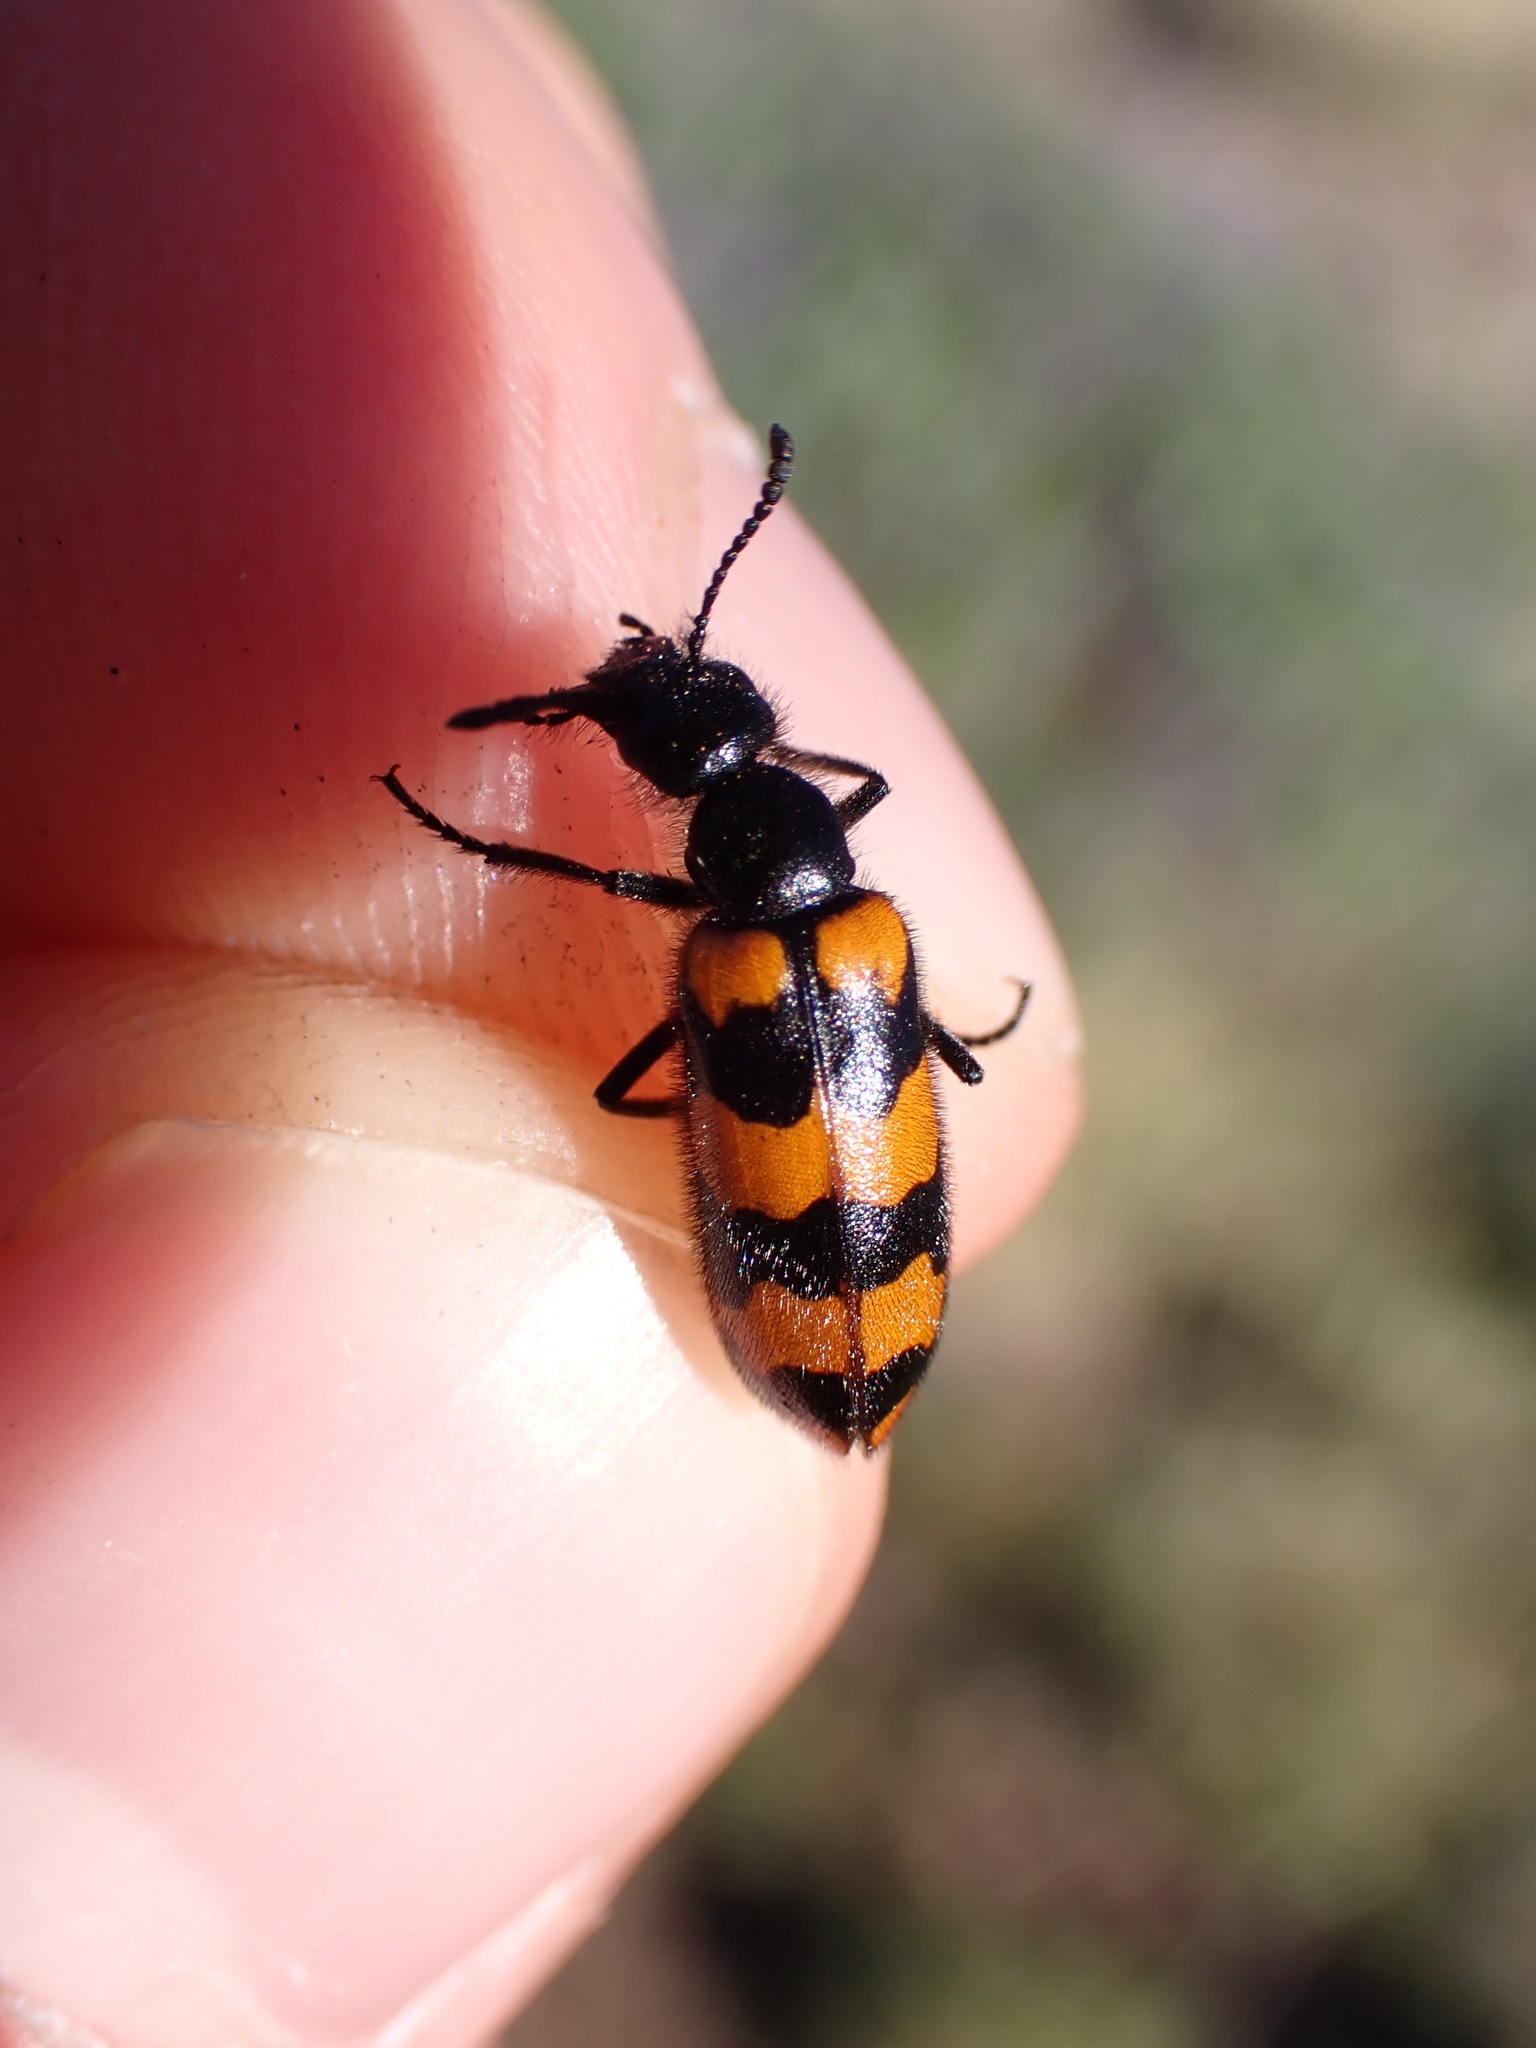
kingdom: Animalia
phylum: Arthropoda
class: Insecta
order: Coleoptera
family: Meloidae
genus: Mylabris
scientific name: Mylabris connata
